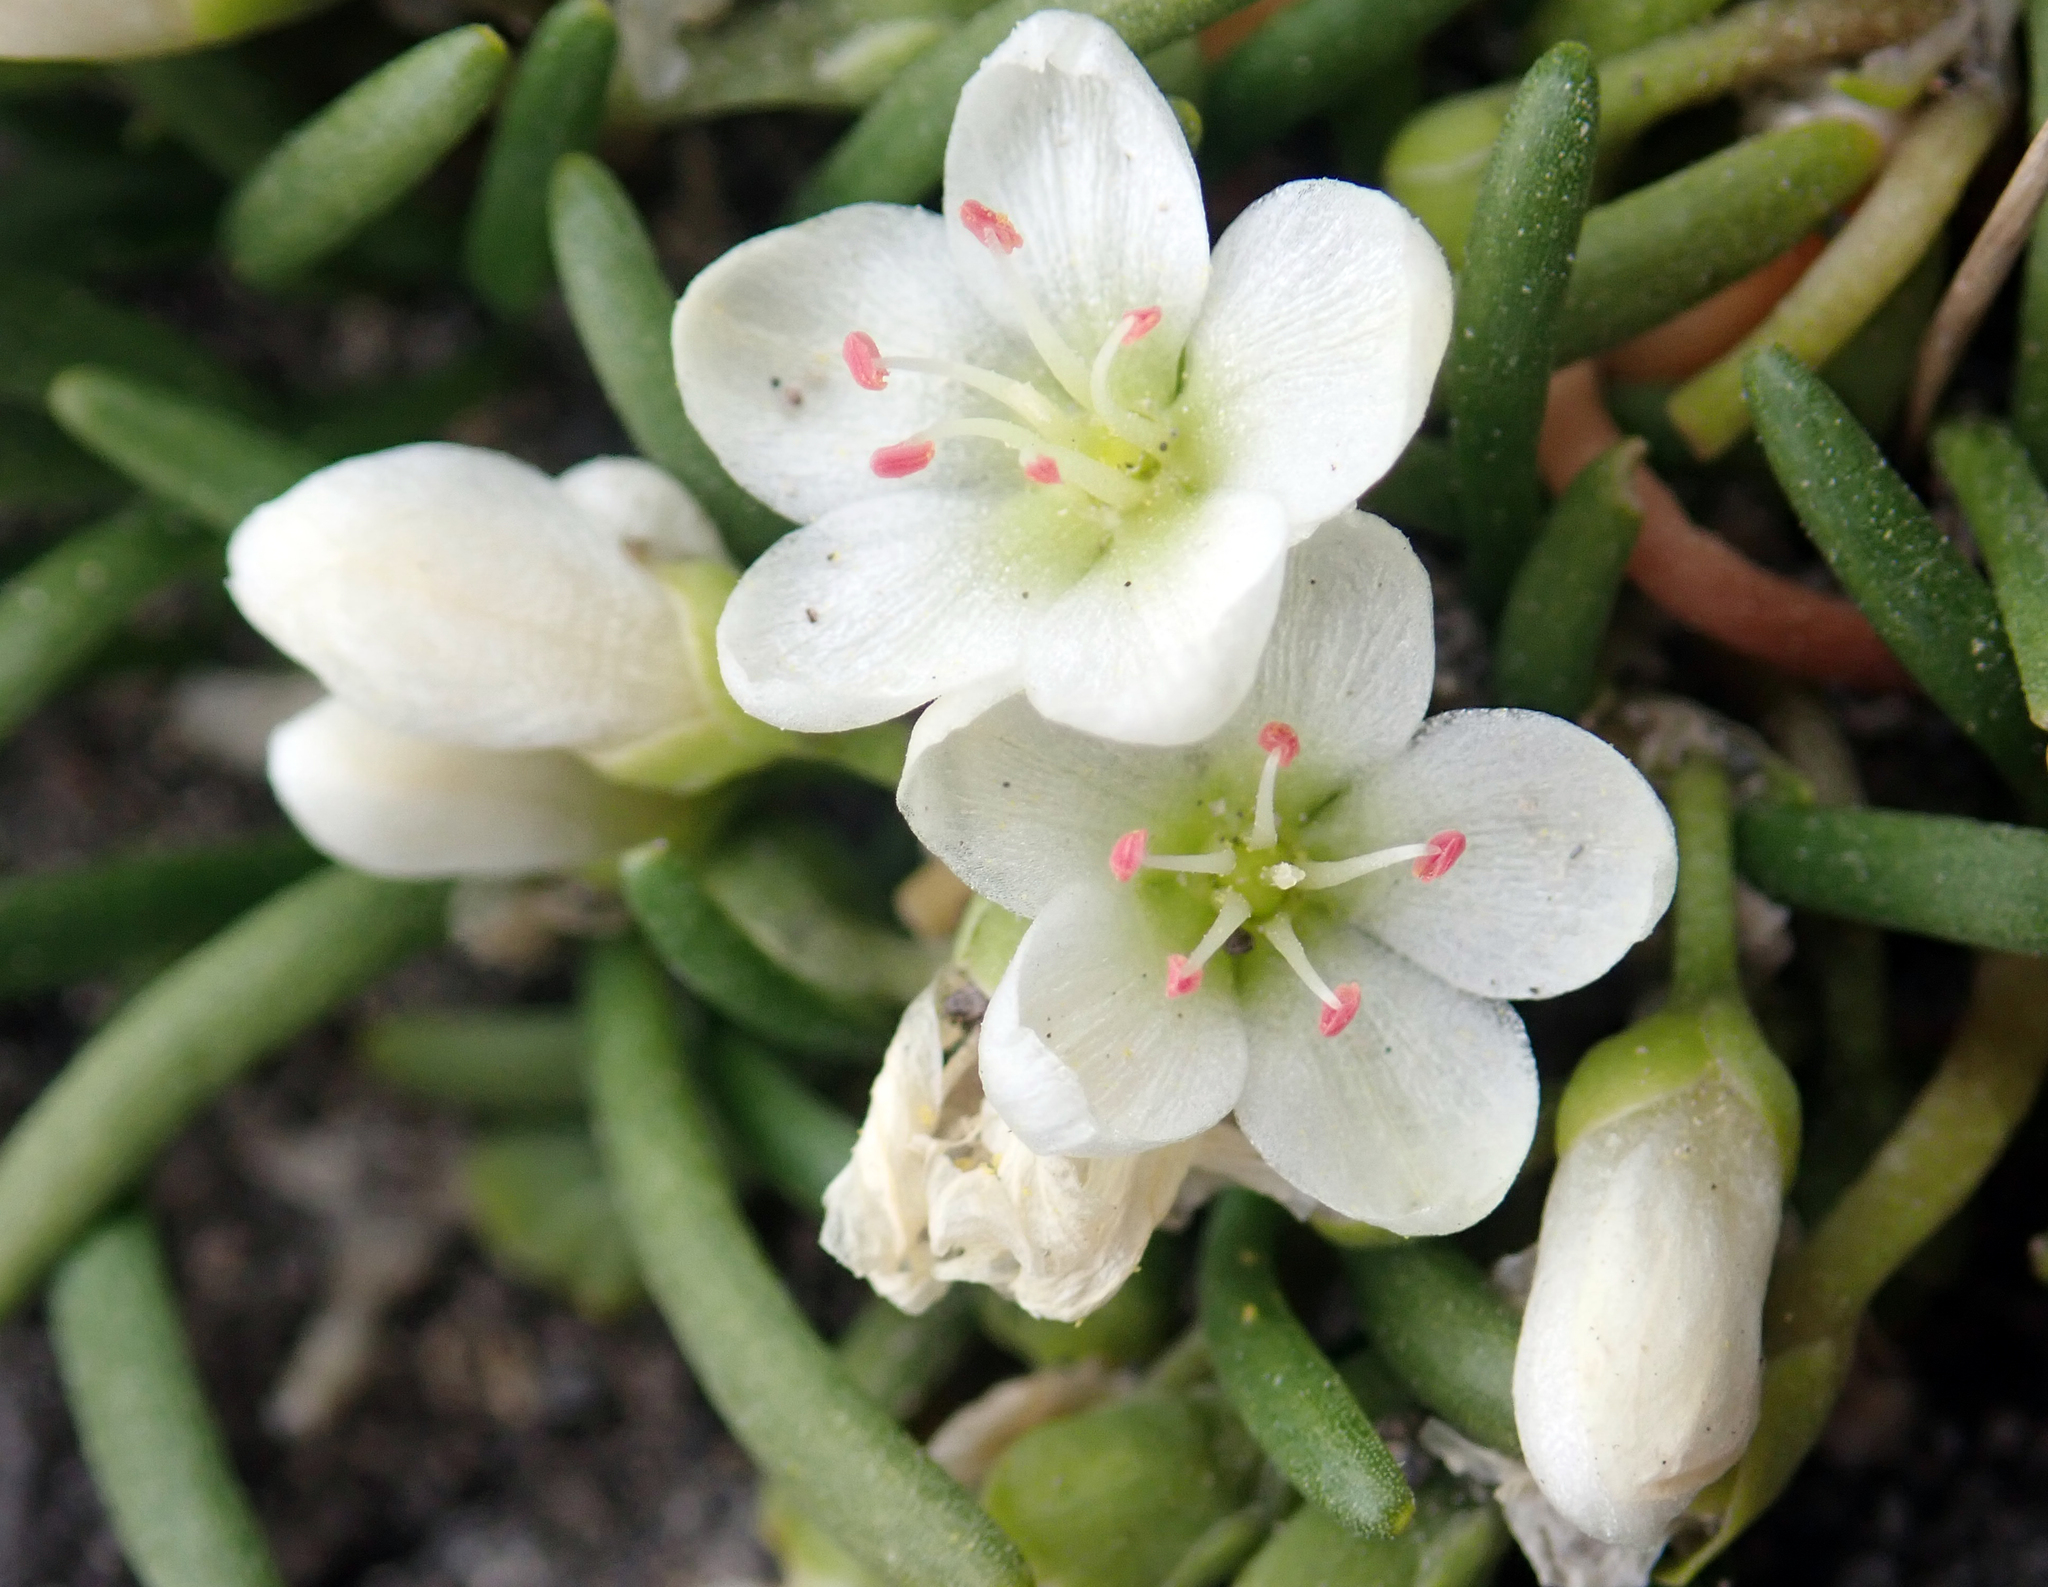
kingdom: Plantae
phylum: Tracheophyta
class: Magnoliopsida
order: Caryophyllales
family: Montiaceae
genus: Montia
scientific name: Montia calycina
